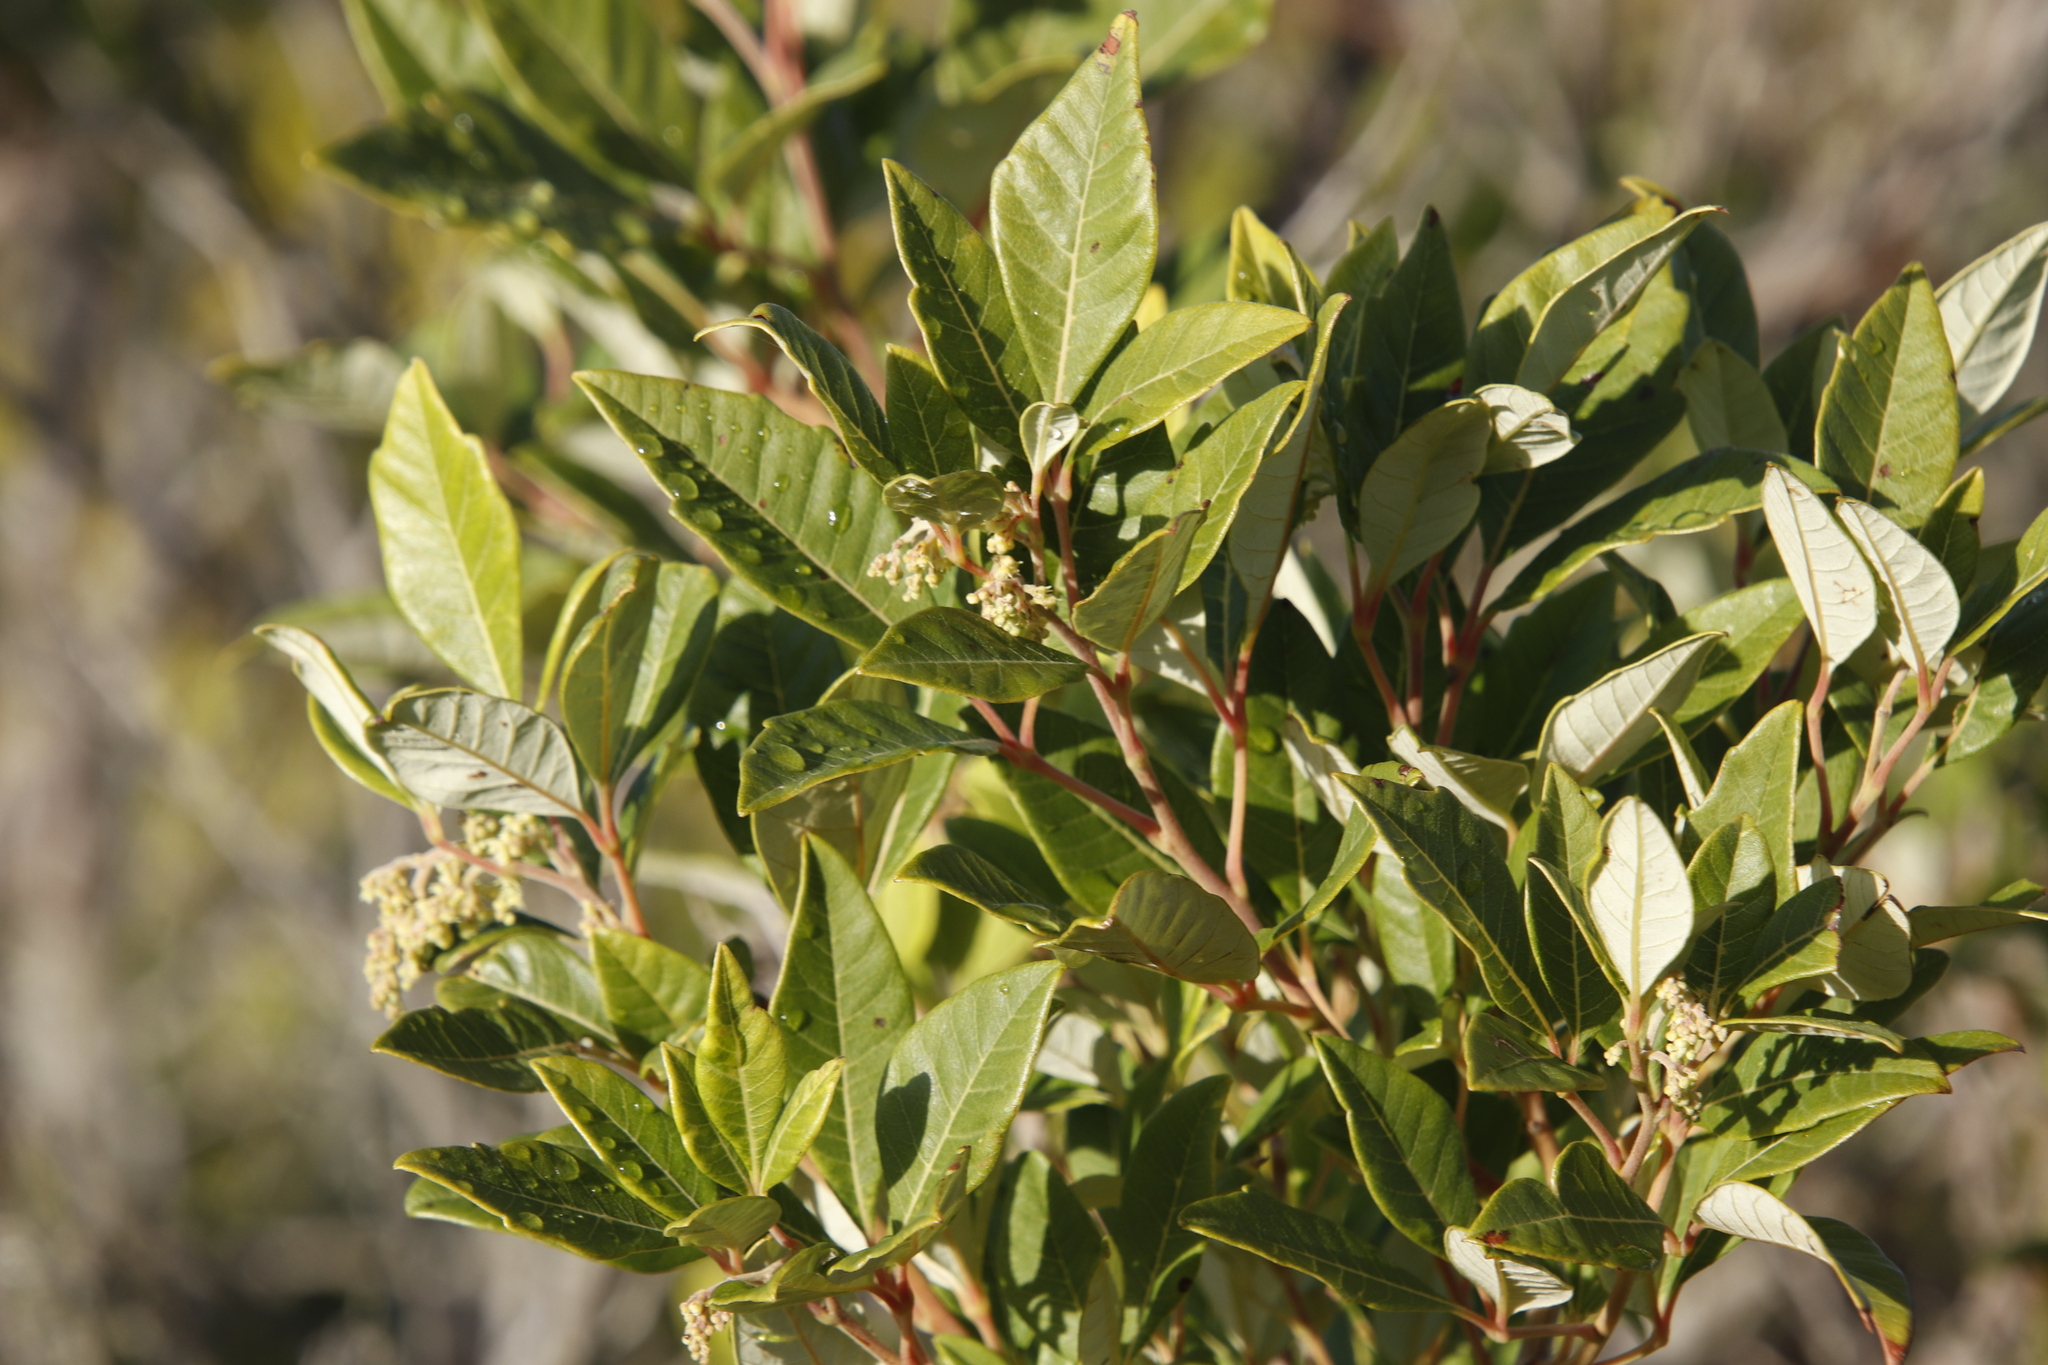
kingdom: Plantae
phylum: Tracheophyta
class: Magnoliopsida
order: Sapindales
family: Anacardiaceae
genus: Searsia
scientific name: Searsia tomentosa
